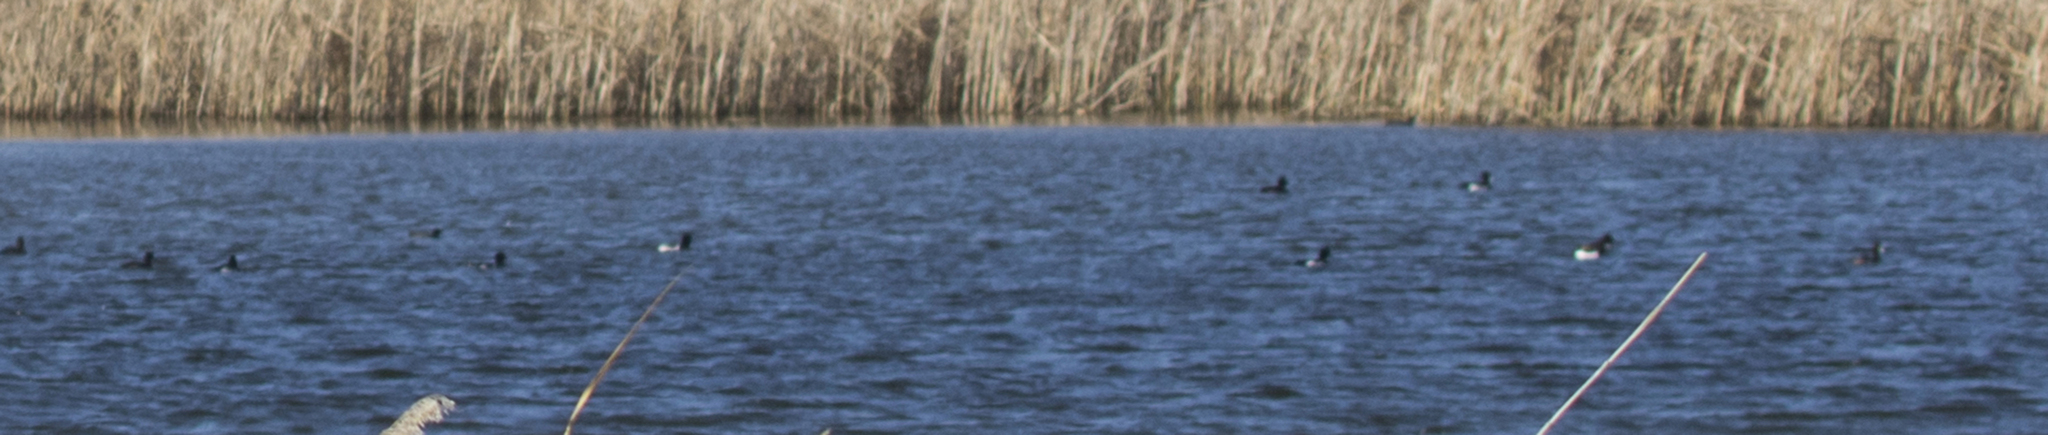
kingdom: Animalia
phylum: Chordata
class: Aves
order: Anseriformes
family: Anatidae
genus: Aythya
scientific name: Aythya fuligula
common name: Tufted duck
